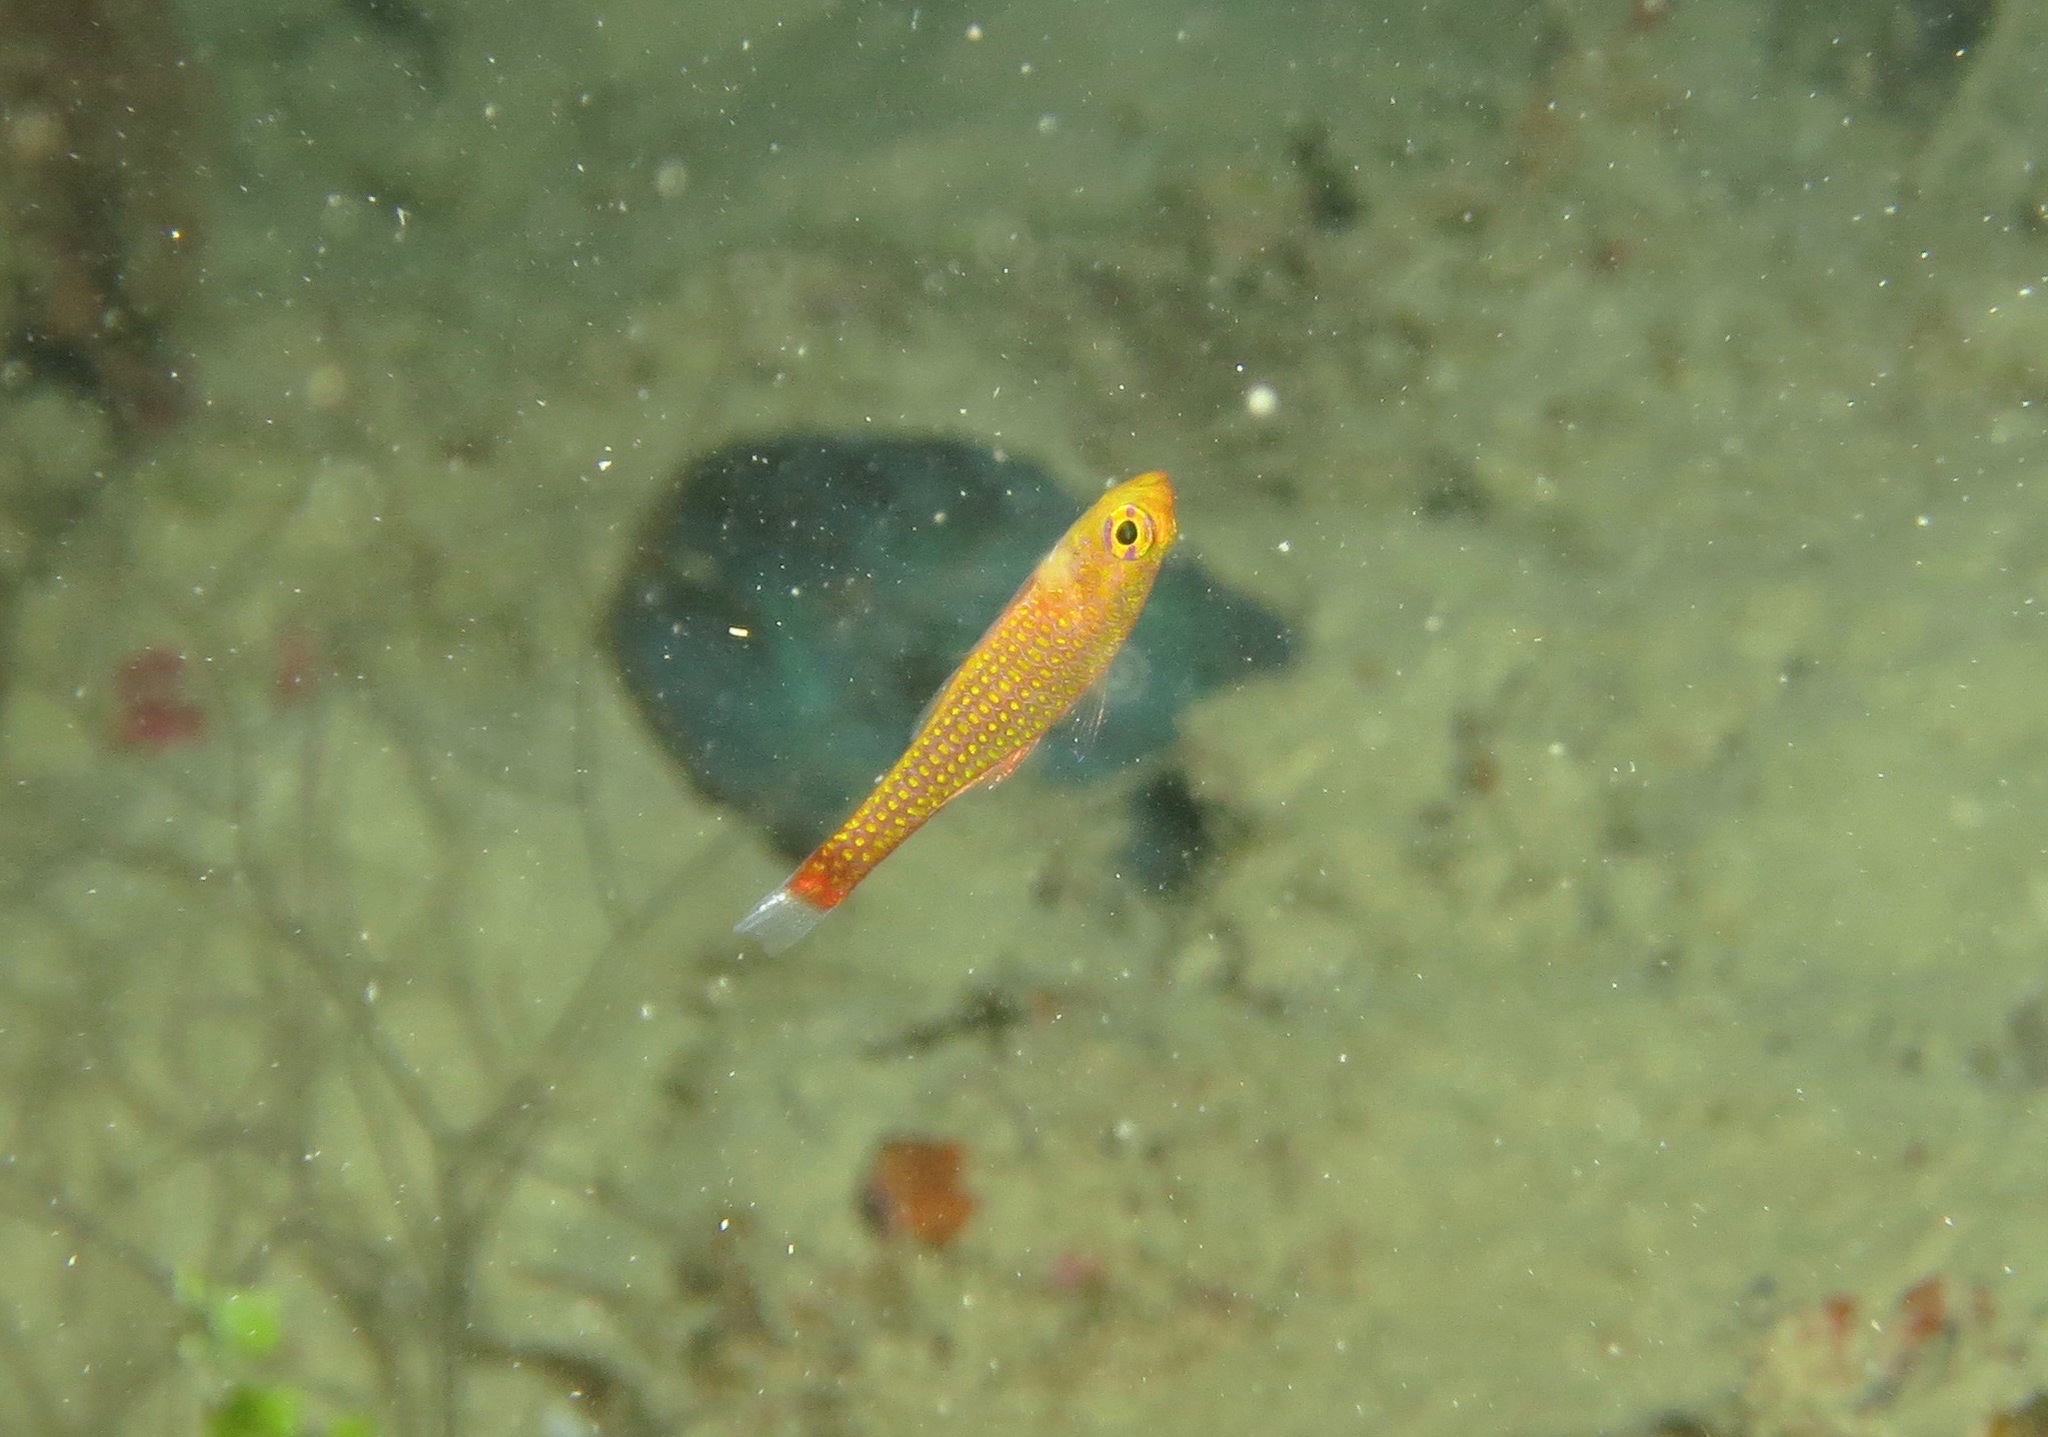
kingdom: Animalia
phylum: Chordata
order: Perciformes
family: Gobiidae
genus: Trimma
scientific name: Trimma finistrinum
